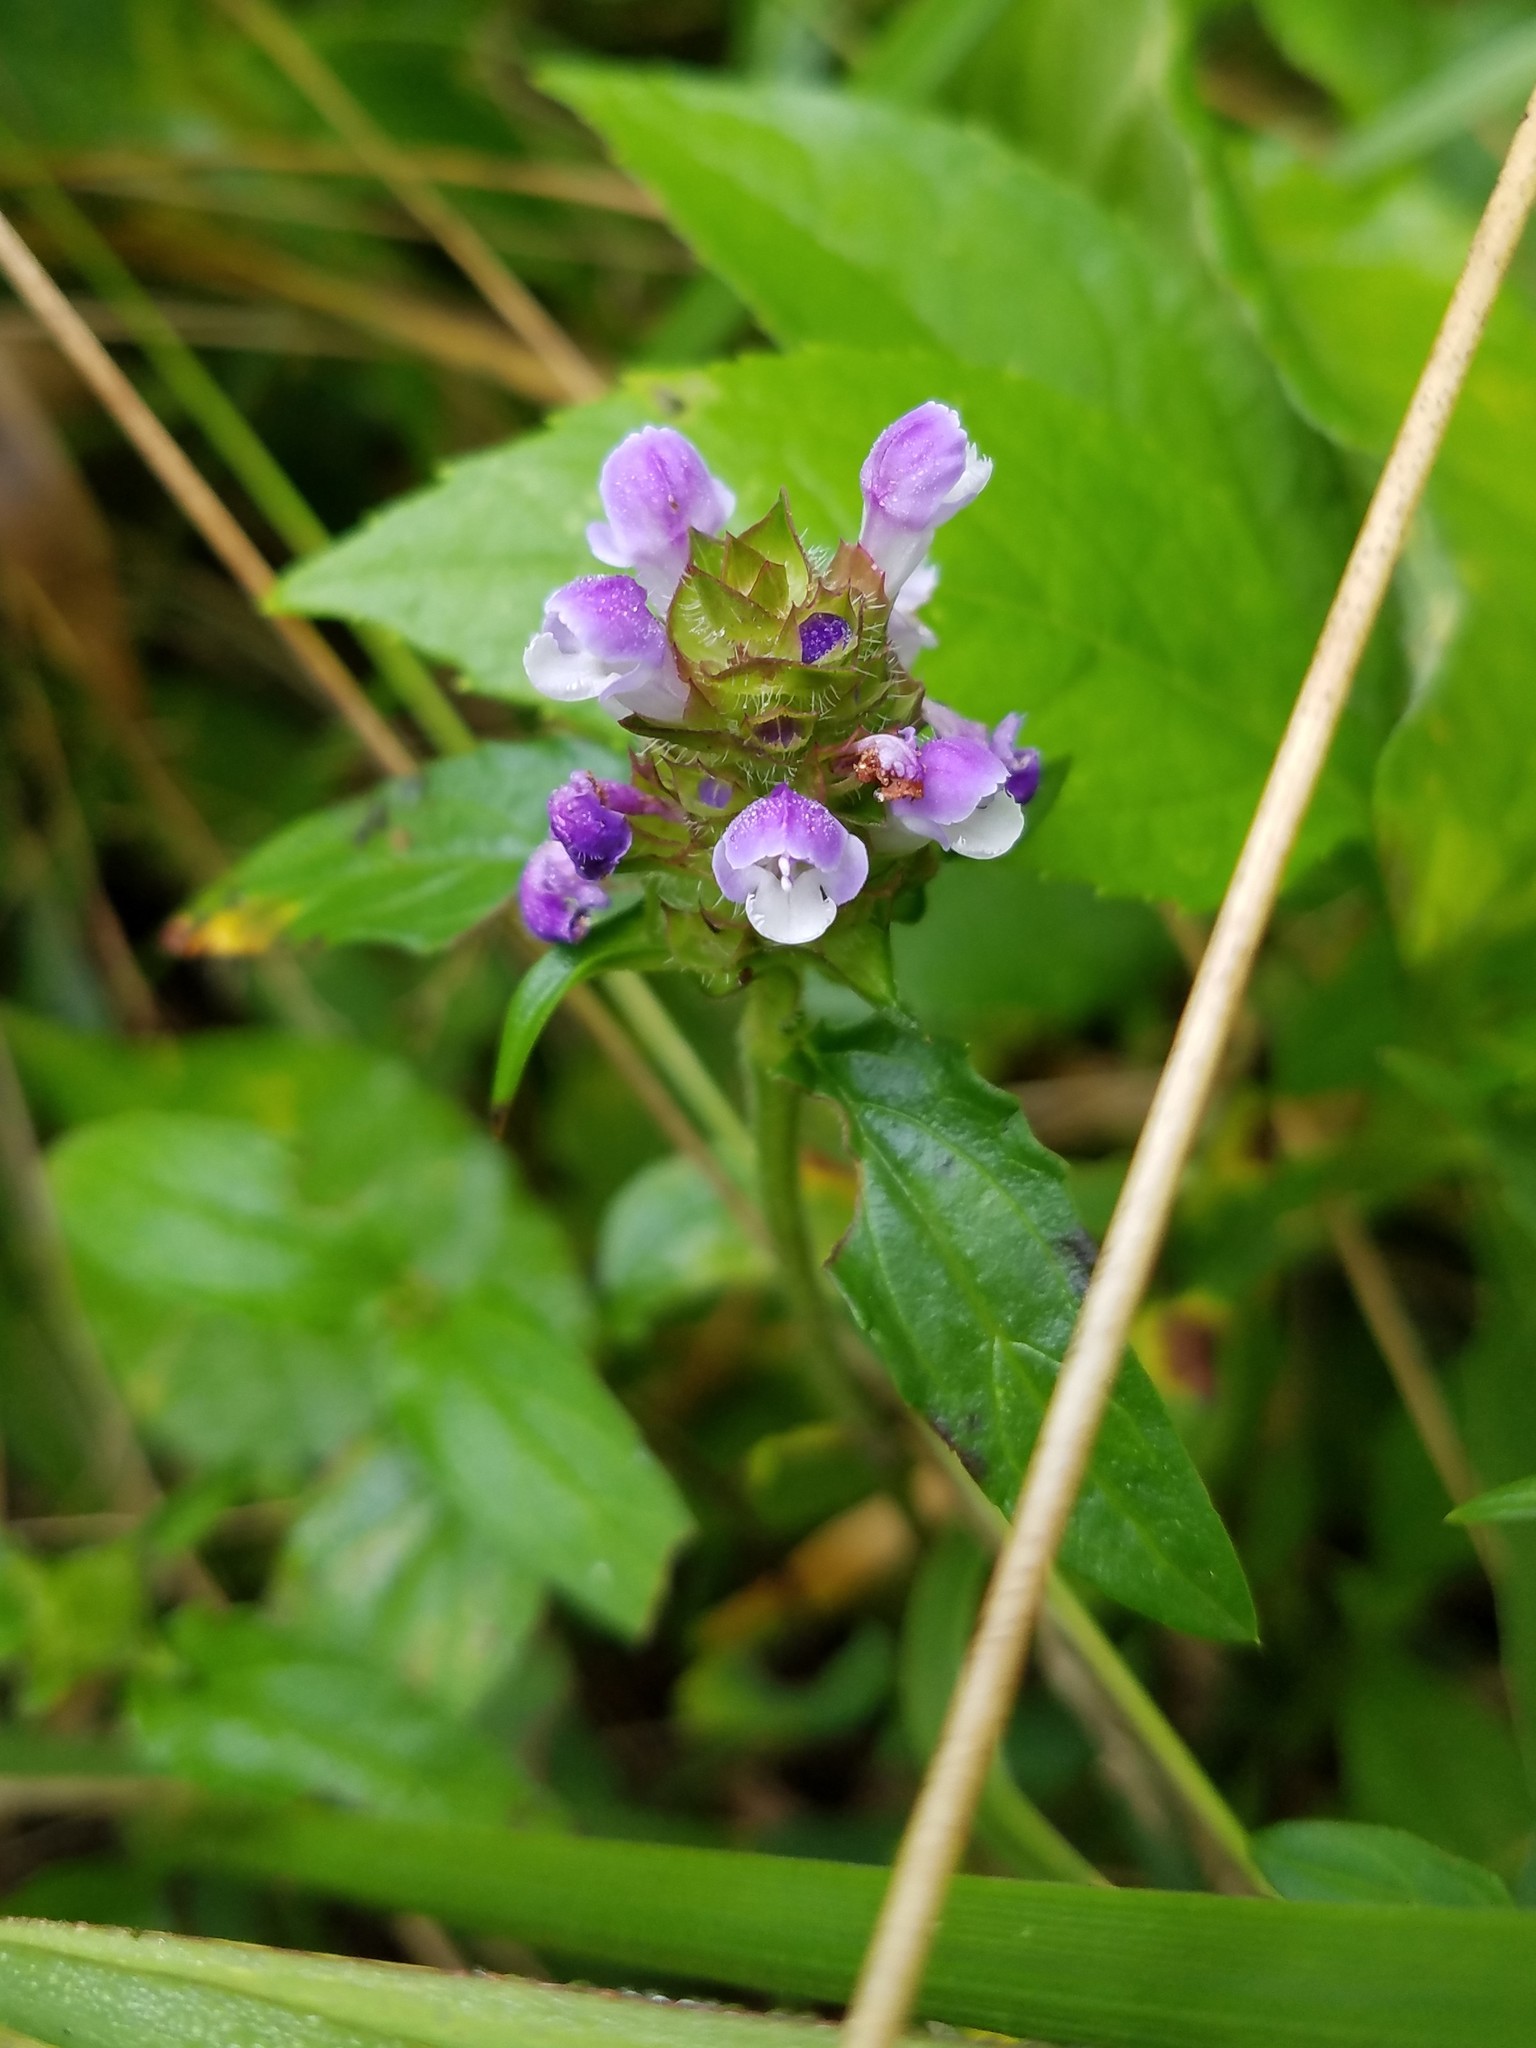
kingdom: Plantae
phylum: Tracheophyta
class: Magnoliopsida
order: Lamiales
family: Lamiaceae
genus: Prunella
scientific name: Prunella vulgaris
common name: Heal-all
